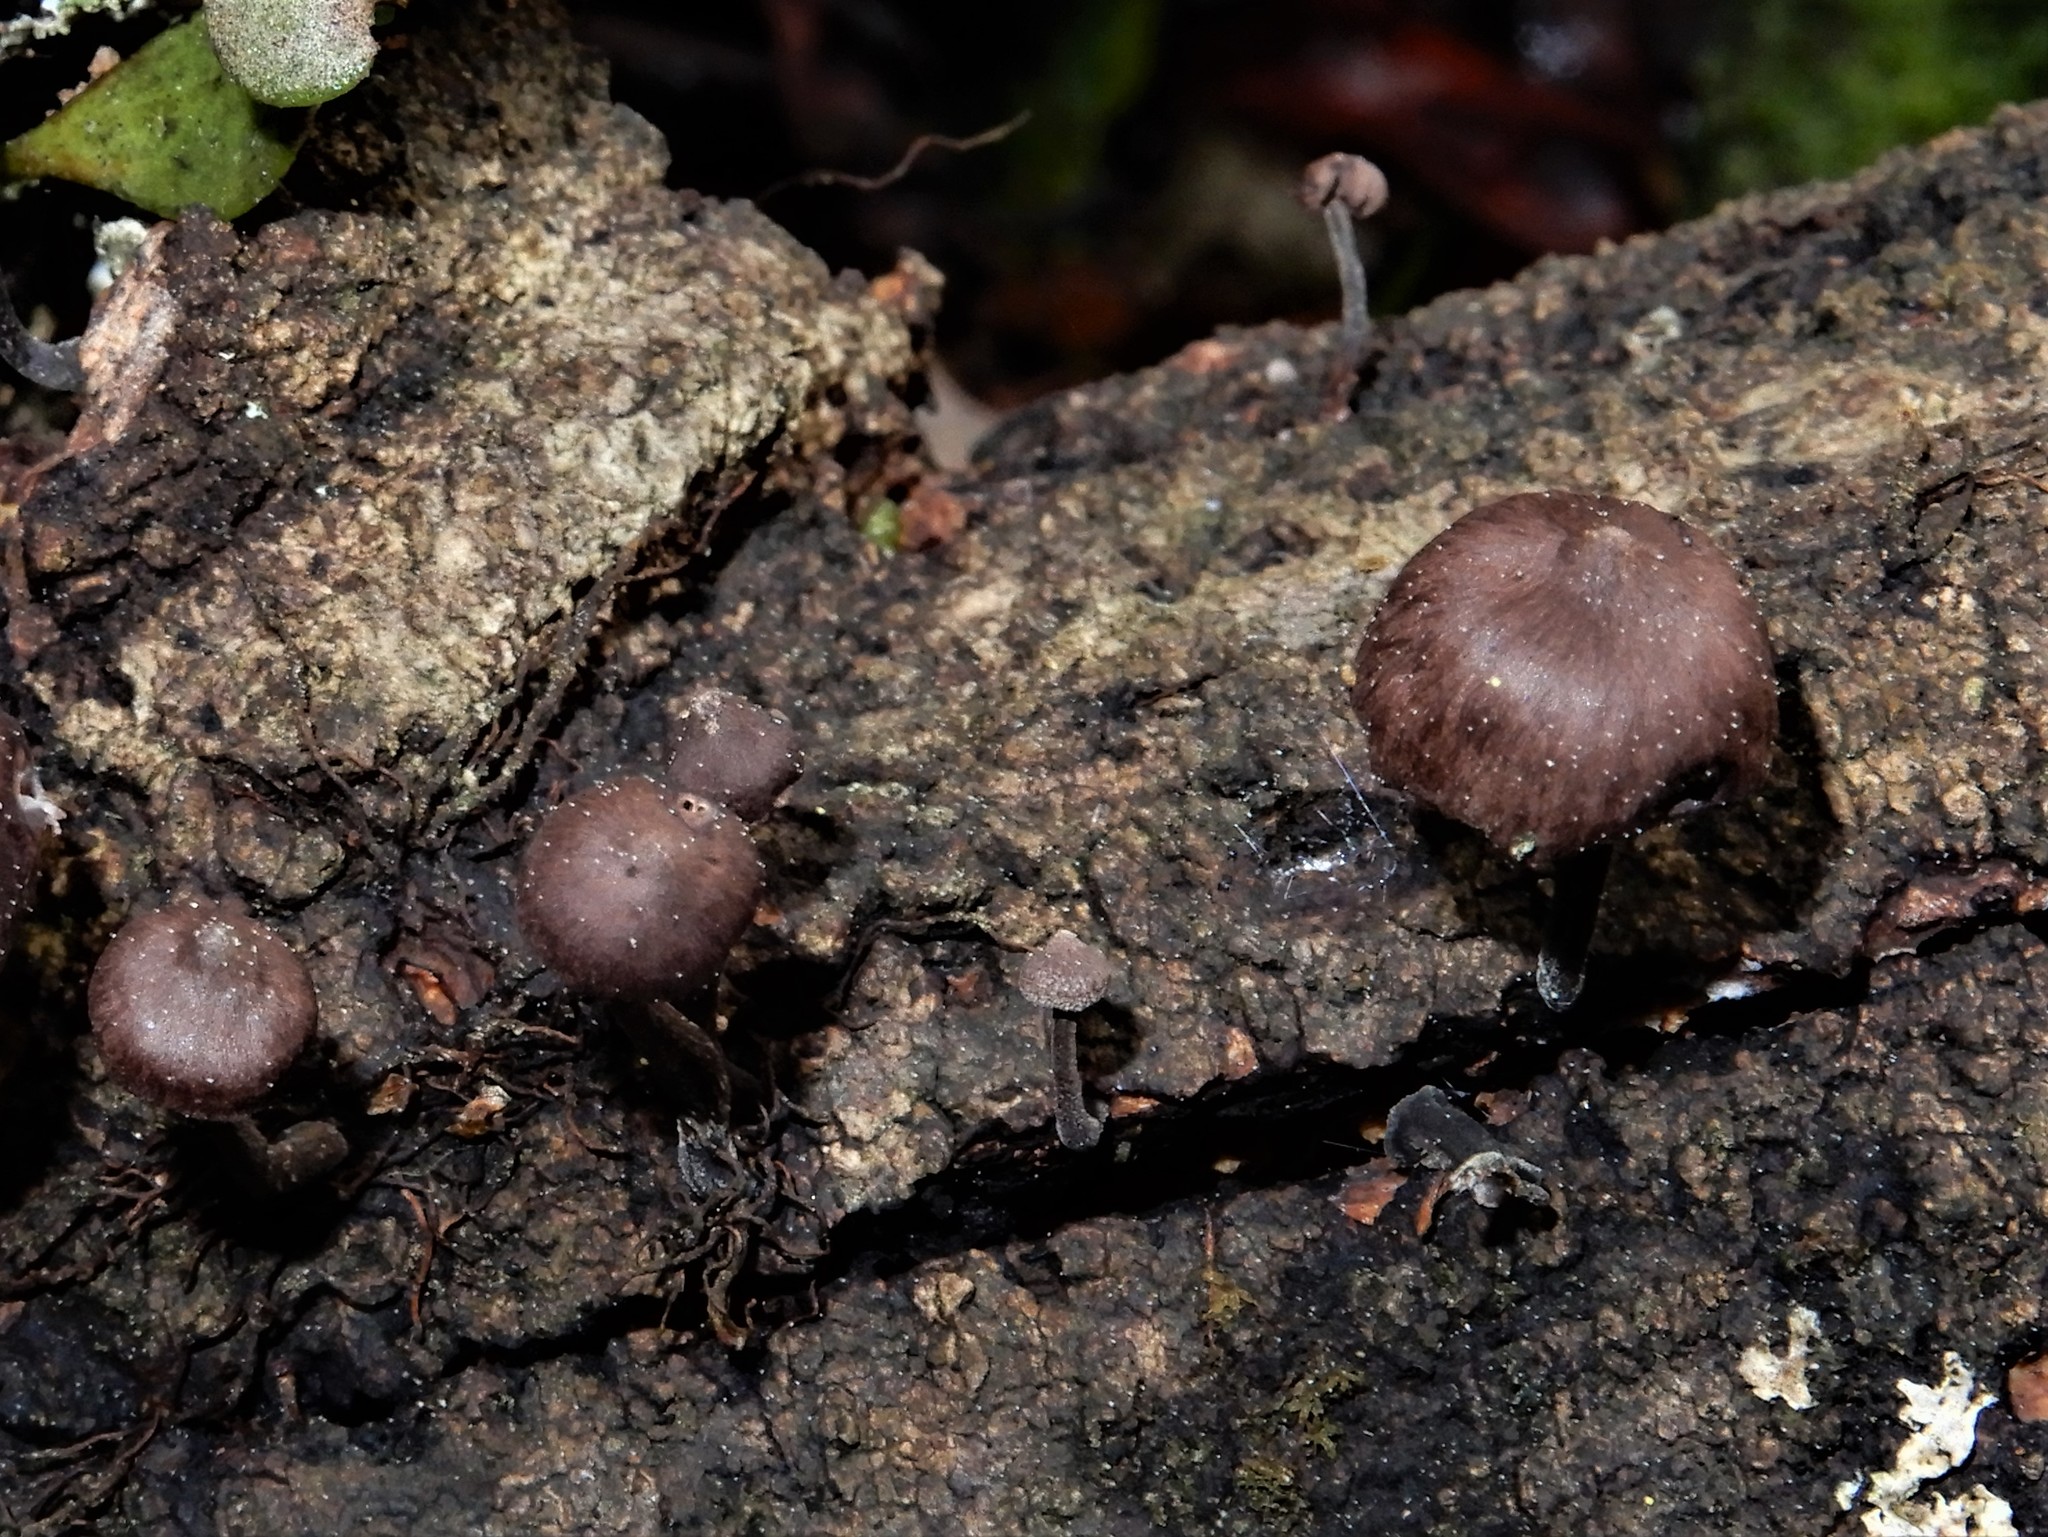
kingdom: Fungi
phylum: Basidiomycota
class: Agaricomycetes
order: Agaricales
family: Omphalotaceae
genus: Gymnopus
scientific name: Gymnopus ceraceicola
